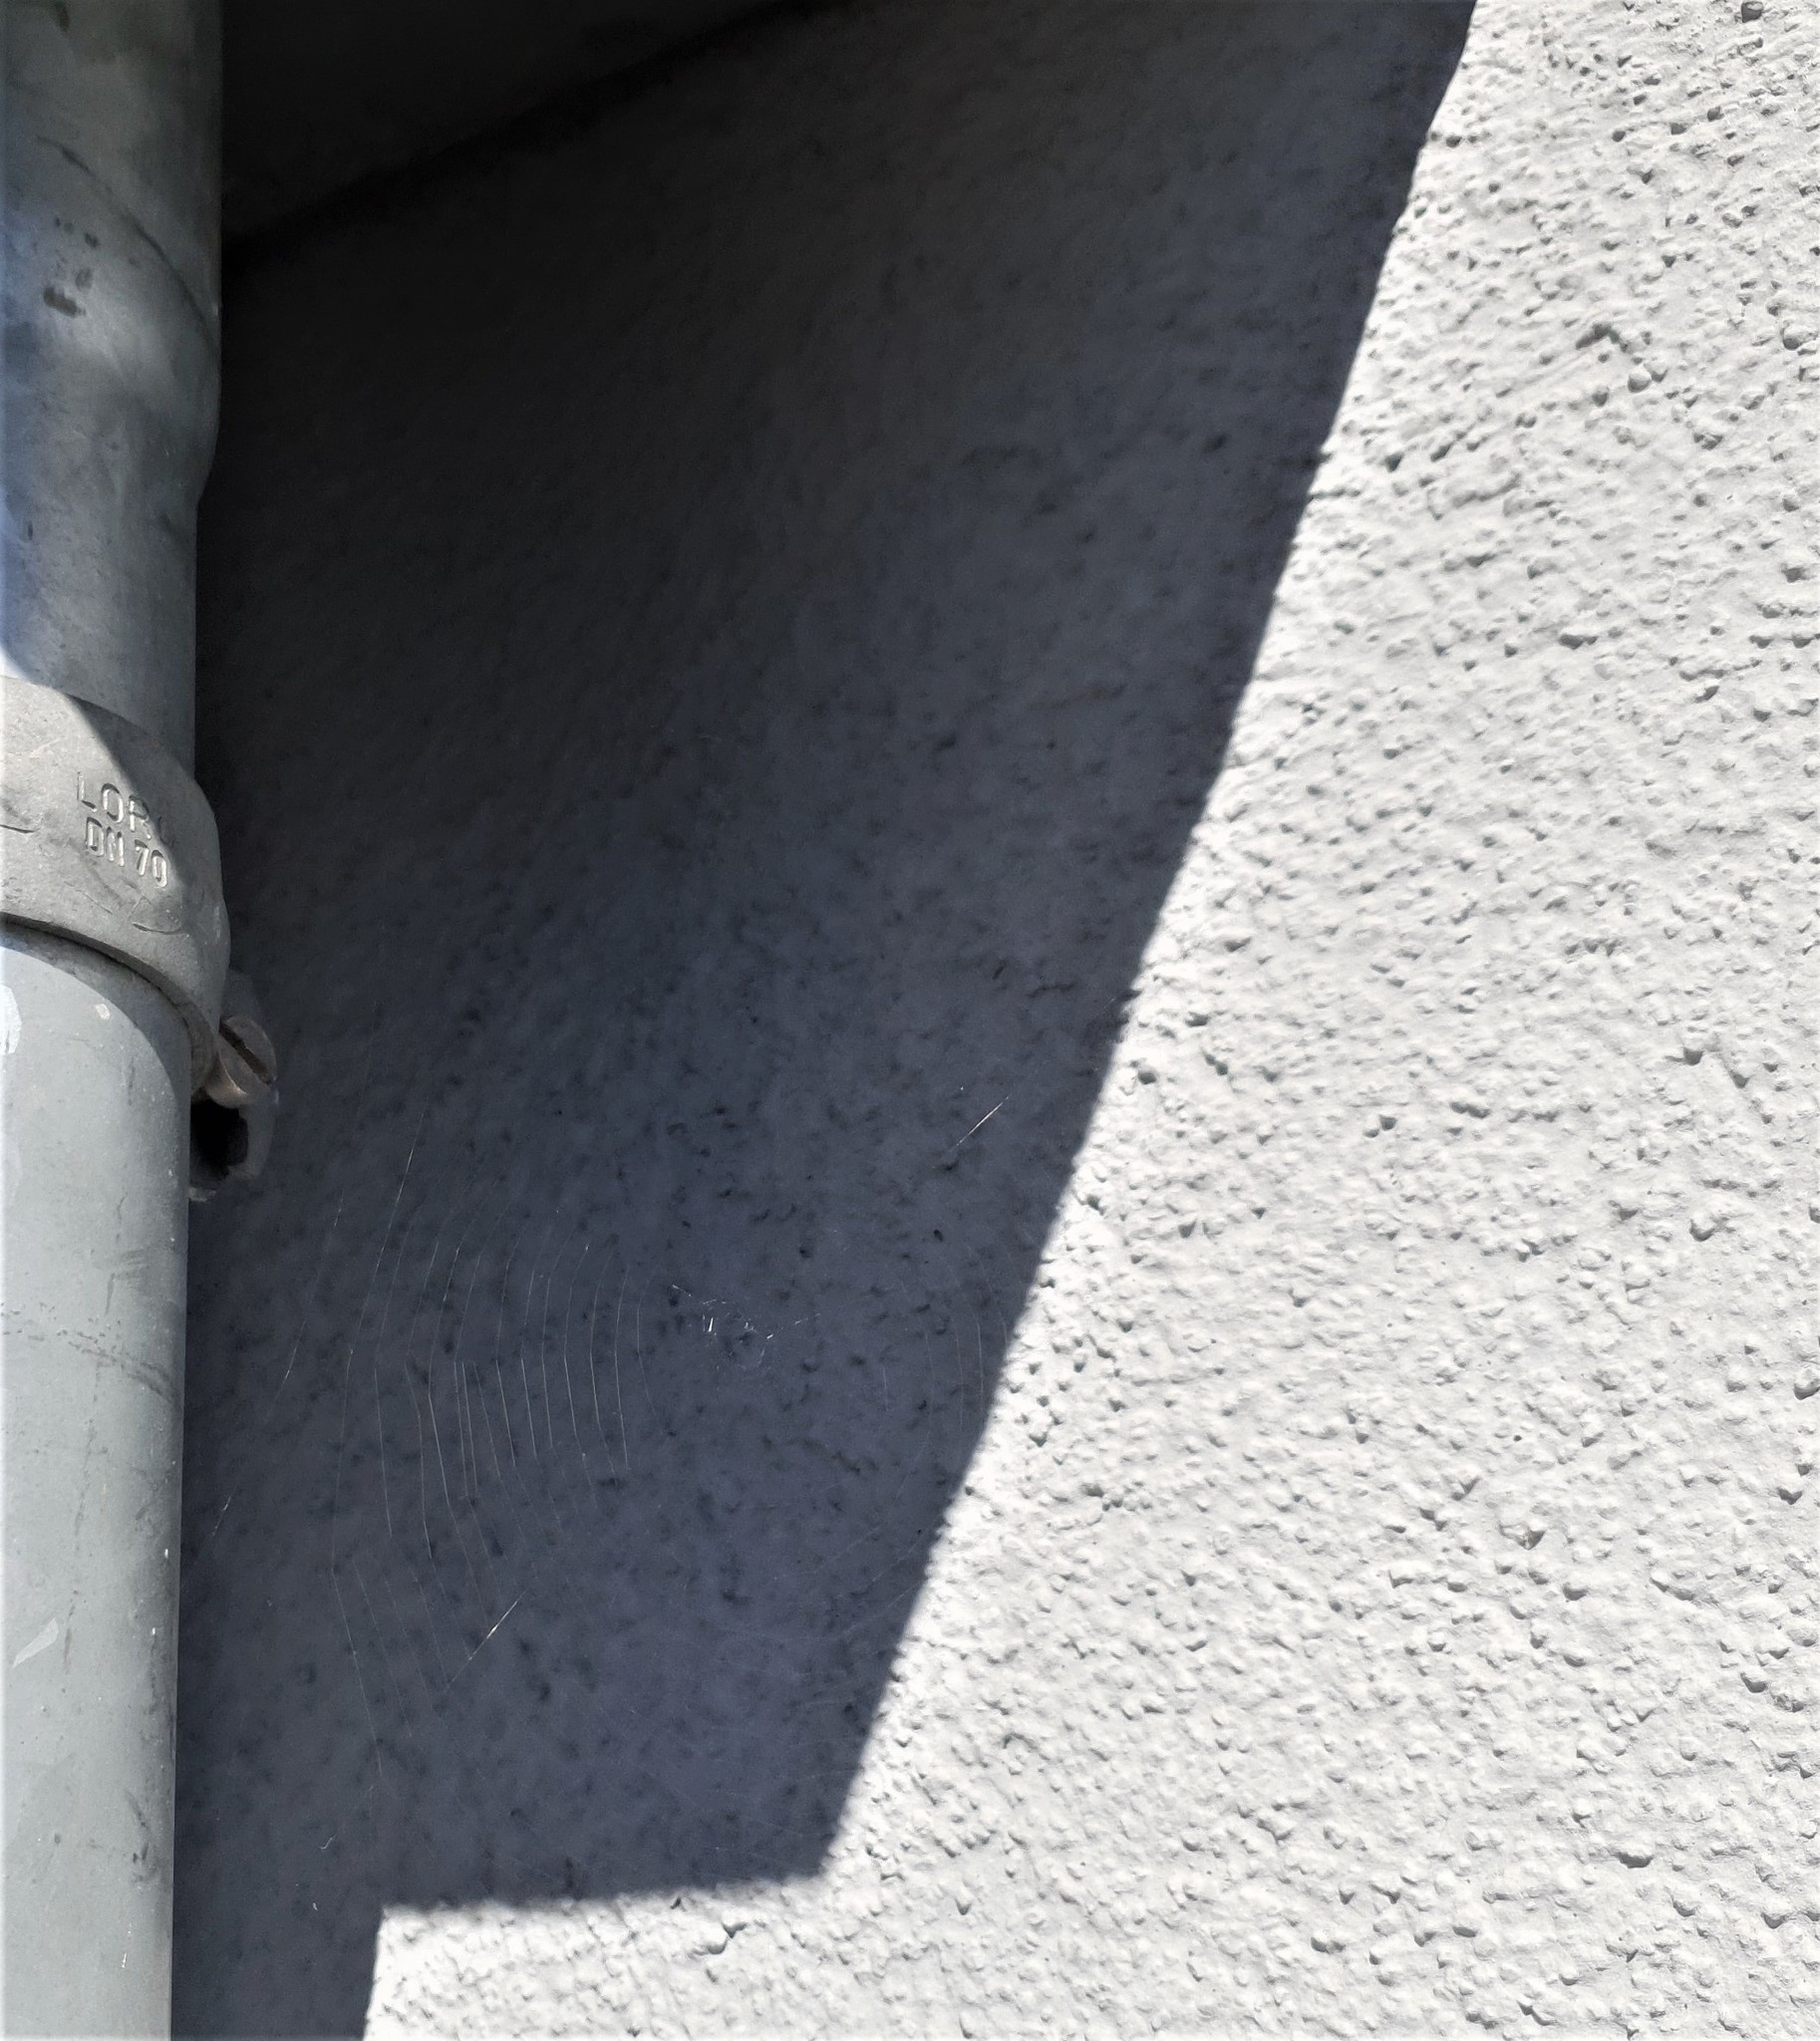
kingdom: Animalia
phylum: Arthropoda
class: Arachnida
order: Araneae
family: Araneidae
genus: Nuctenea
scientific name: Nuctenea umbratica
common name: Toad spider
